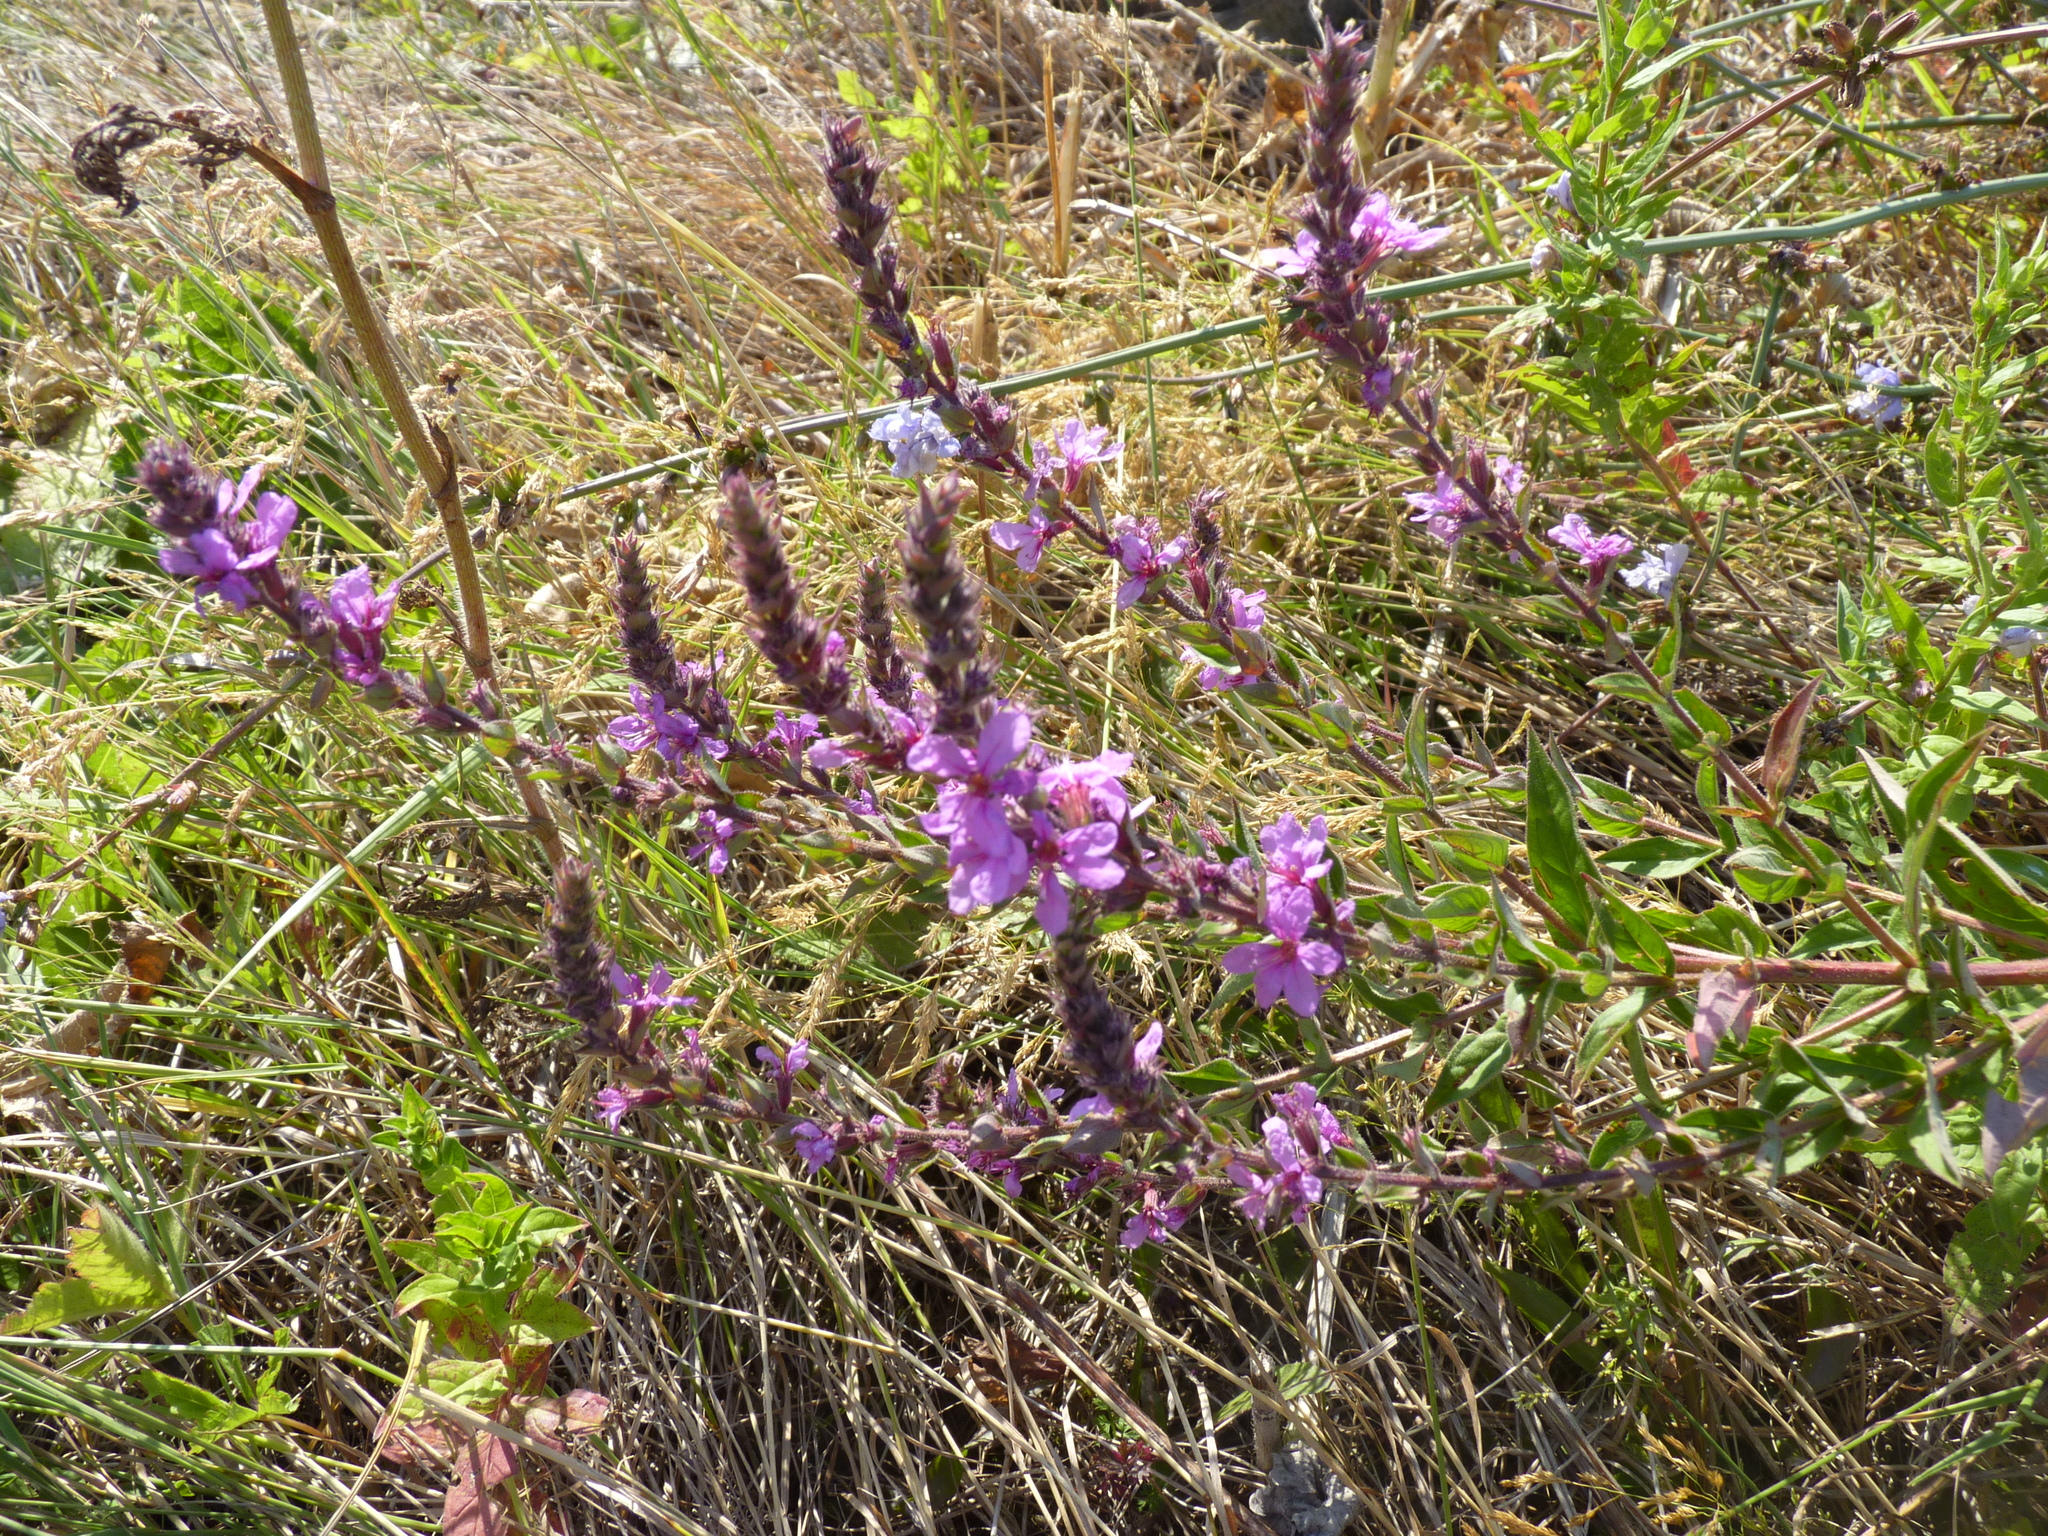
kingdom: Plantae
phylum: Tracheophyta
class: Magnoliopsida
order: Myrtales
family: Lythraceae
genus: Lythrum
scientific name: Lythrum salicaria
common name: Purple loosestrife
